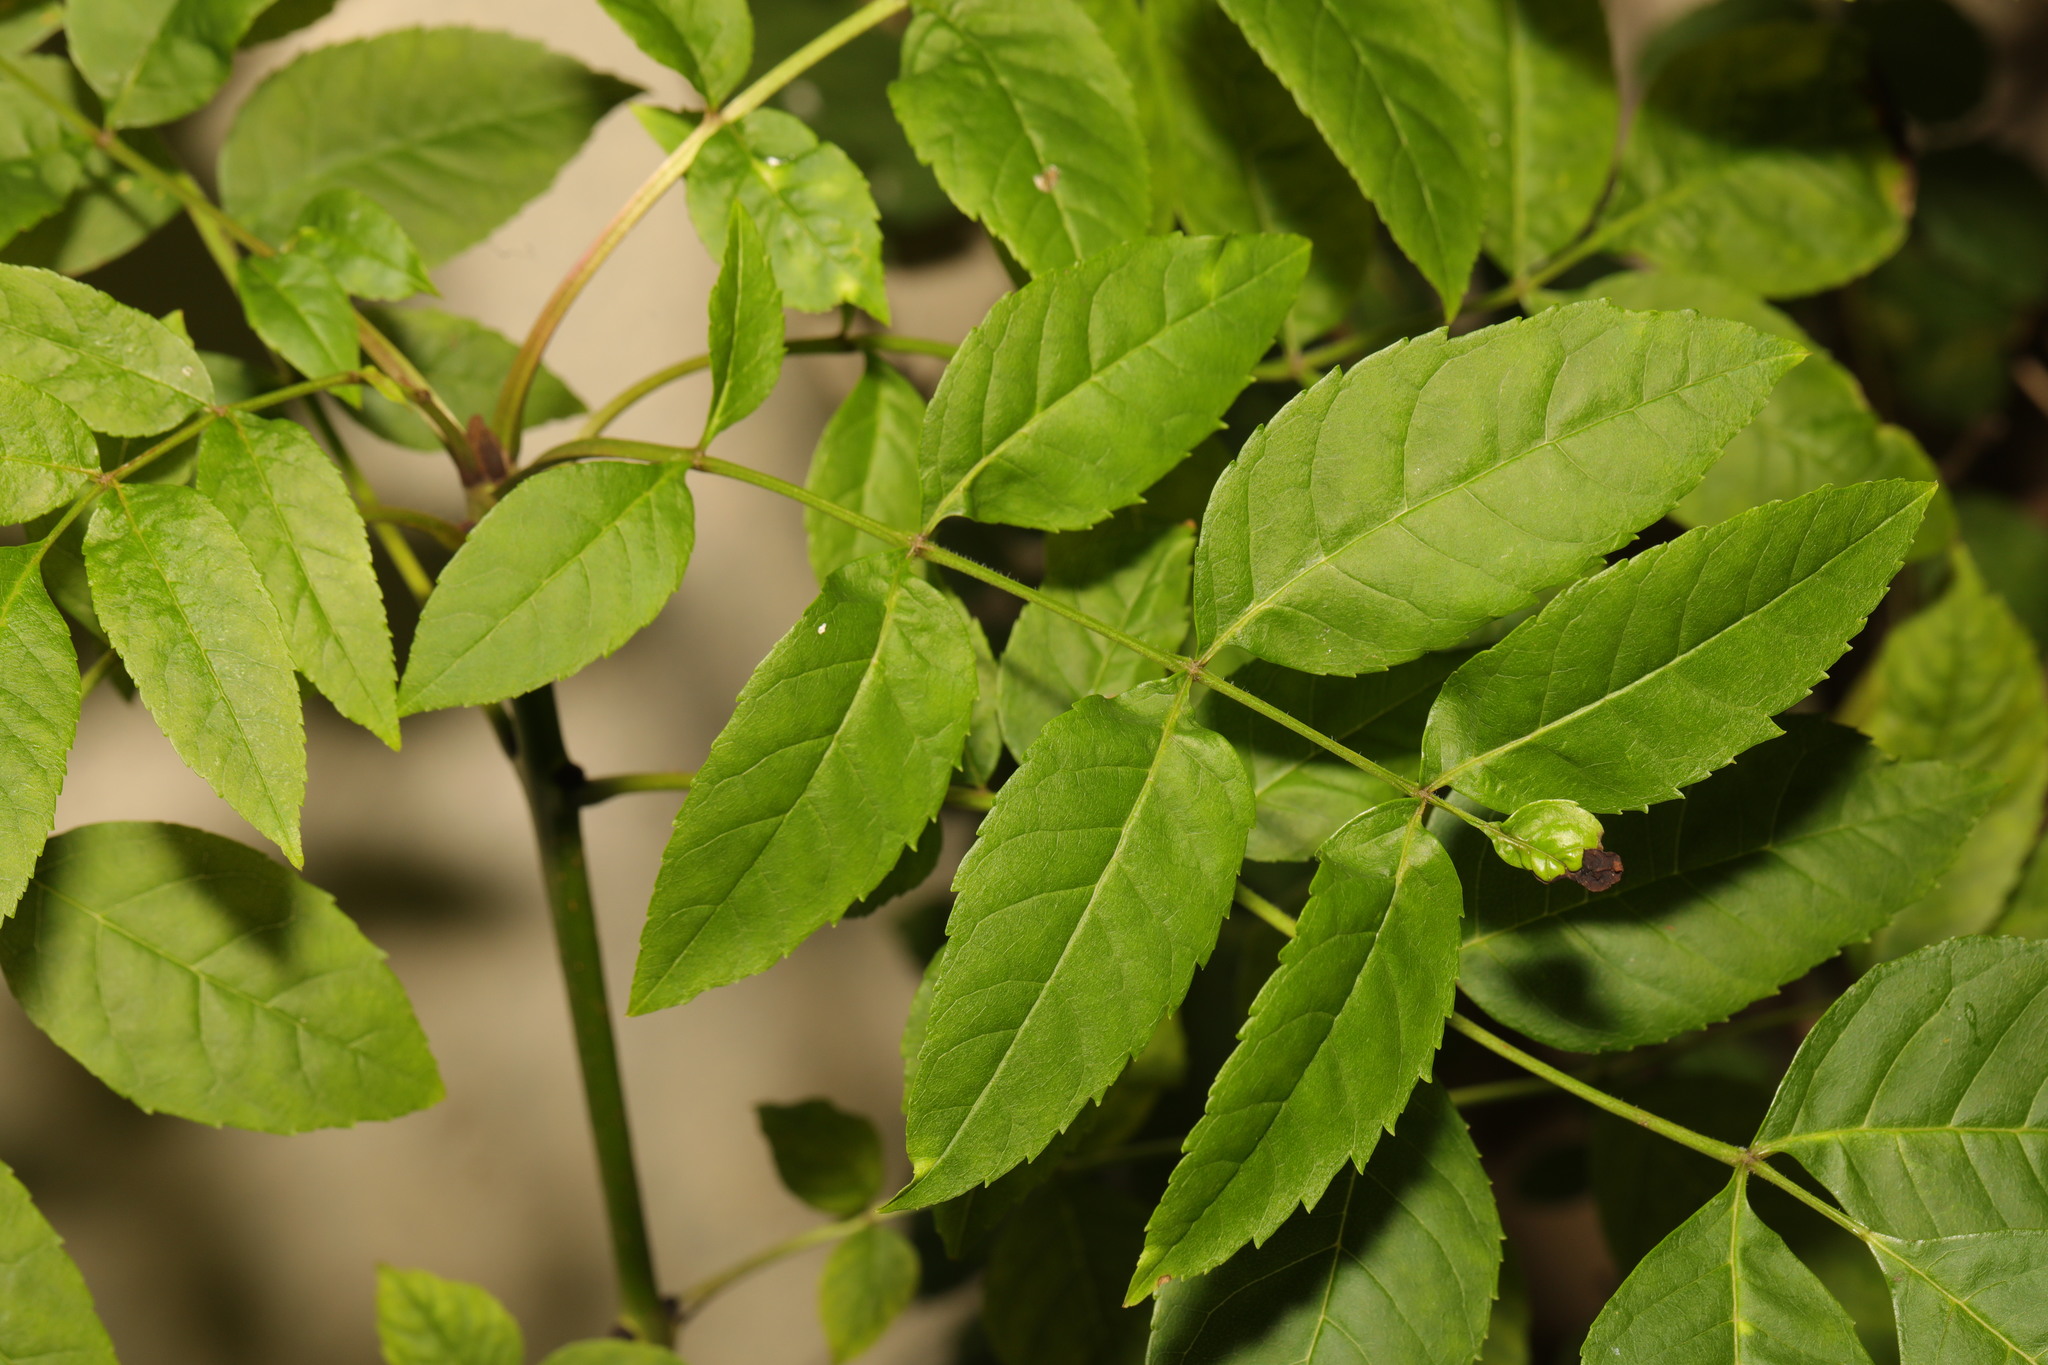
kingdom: Plantae
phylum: Tracheophyta
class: Magnoliopsida
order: Lamiales
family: Oleaceae
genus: Fraxinus
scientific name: Fraxinus excelsior
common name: European ash
